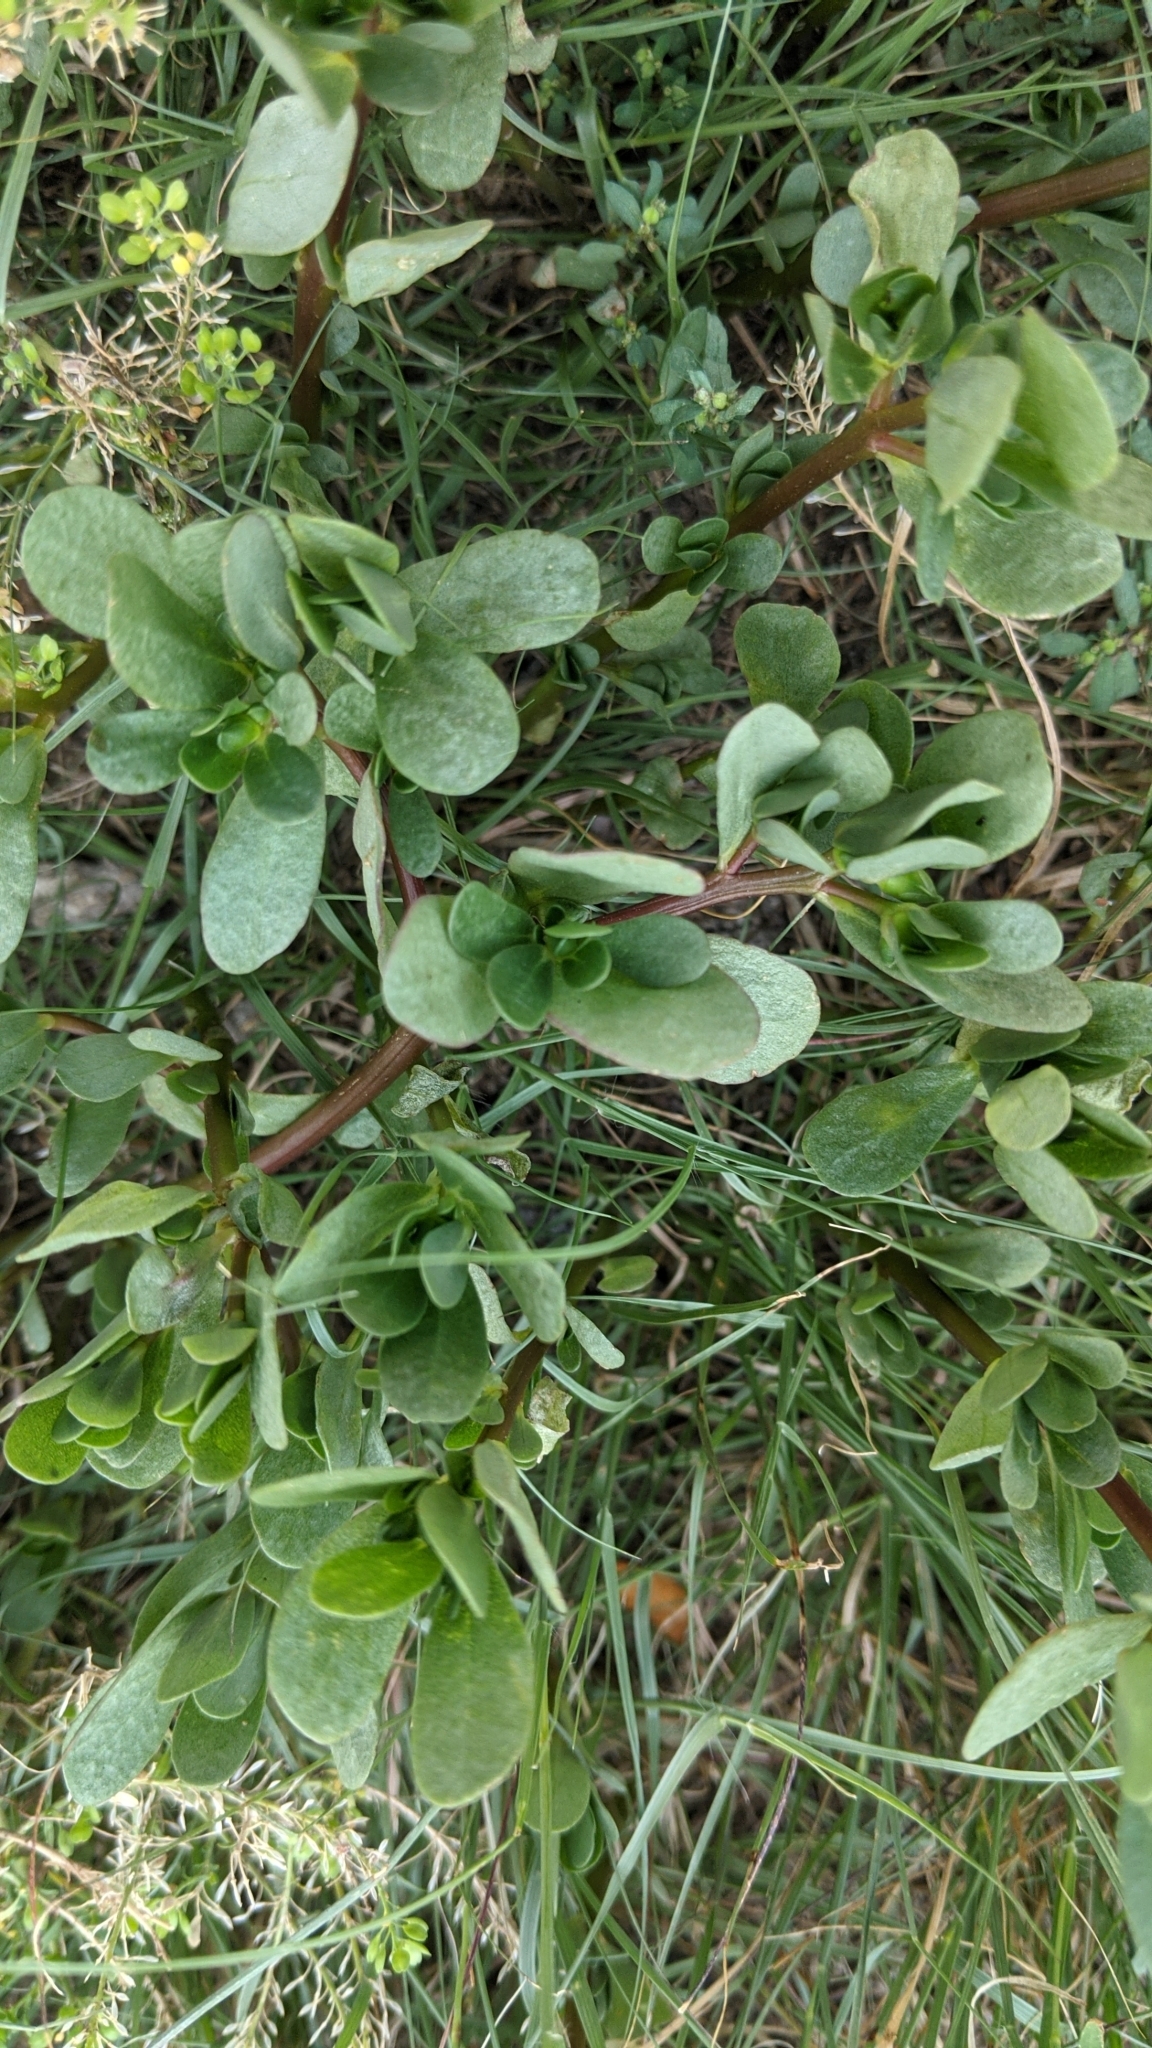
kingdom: Plantae
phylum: Tracheophyta
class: Magnoliopsida
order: Caryophyllales
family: Portulacaceae
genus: Portulaca
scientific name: Portulaca oleracea
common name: Common purslane
